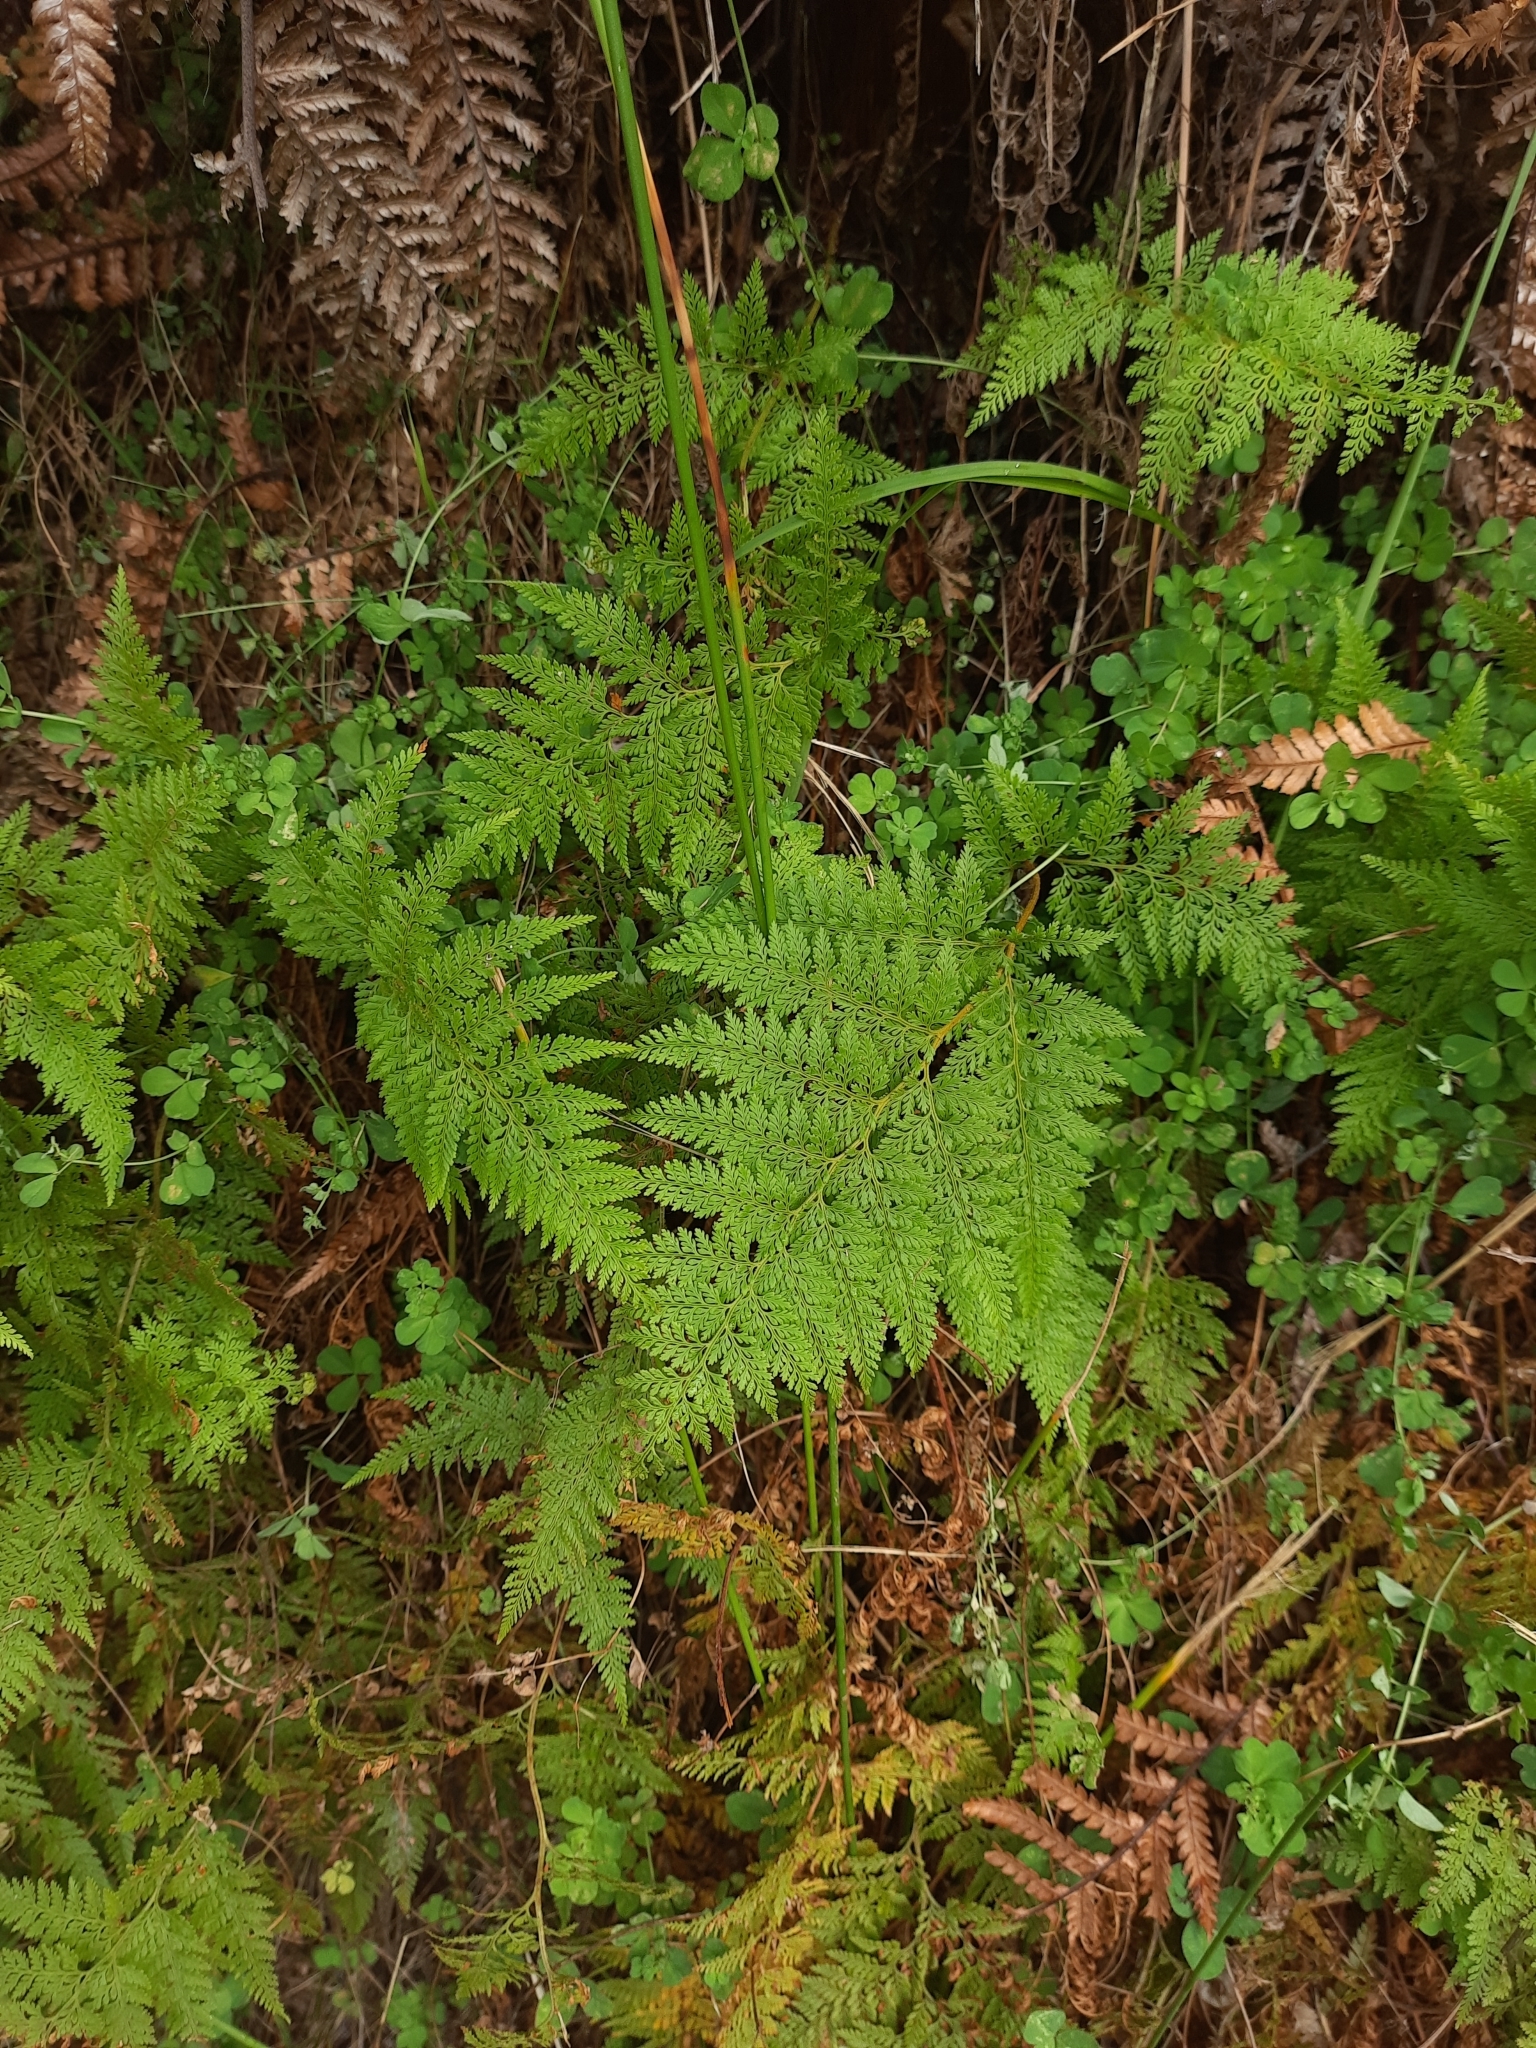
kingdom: Plantae
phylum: Tracheophyta
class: Polypodiopsida
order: Polypodiales
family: Dennstaedtiaceae
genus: Paesia
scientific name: Paesia scaberula
